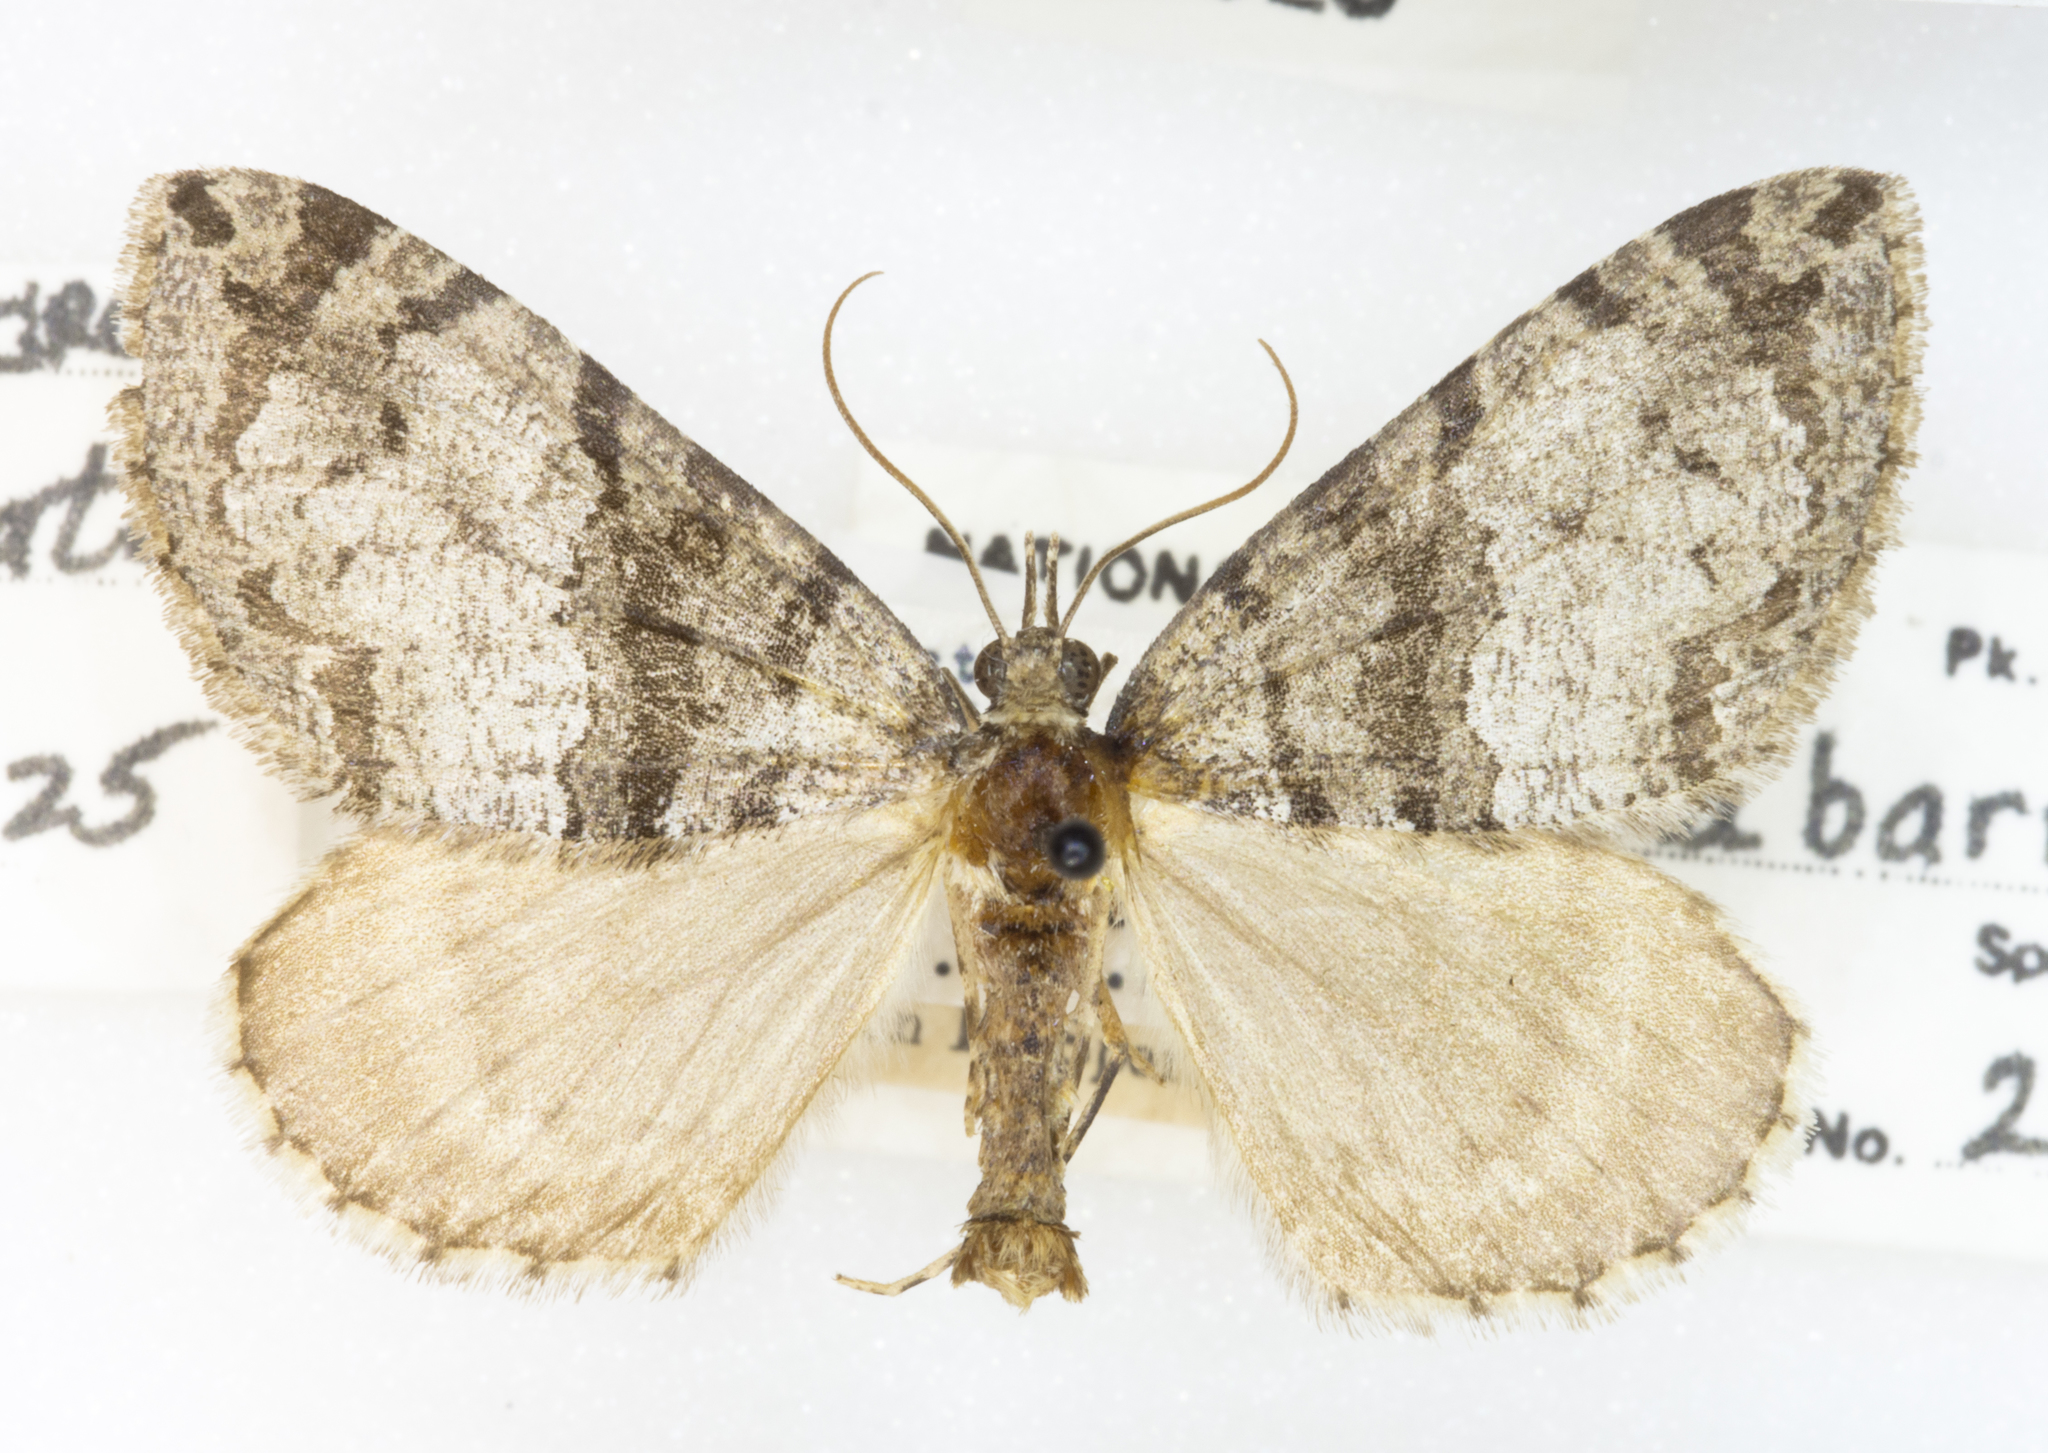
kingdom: Animalia
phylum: Arthropoda
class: Insecta
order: Lepidoptera
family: Geometridae
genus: Hydriomena
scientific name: Hydriomena barnesata
